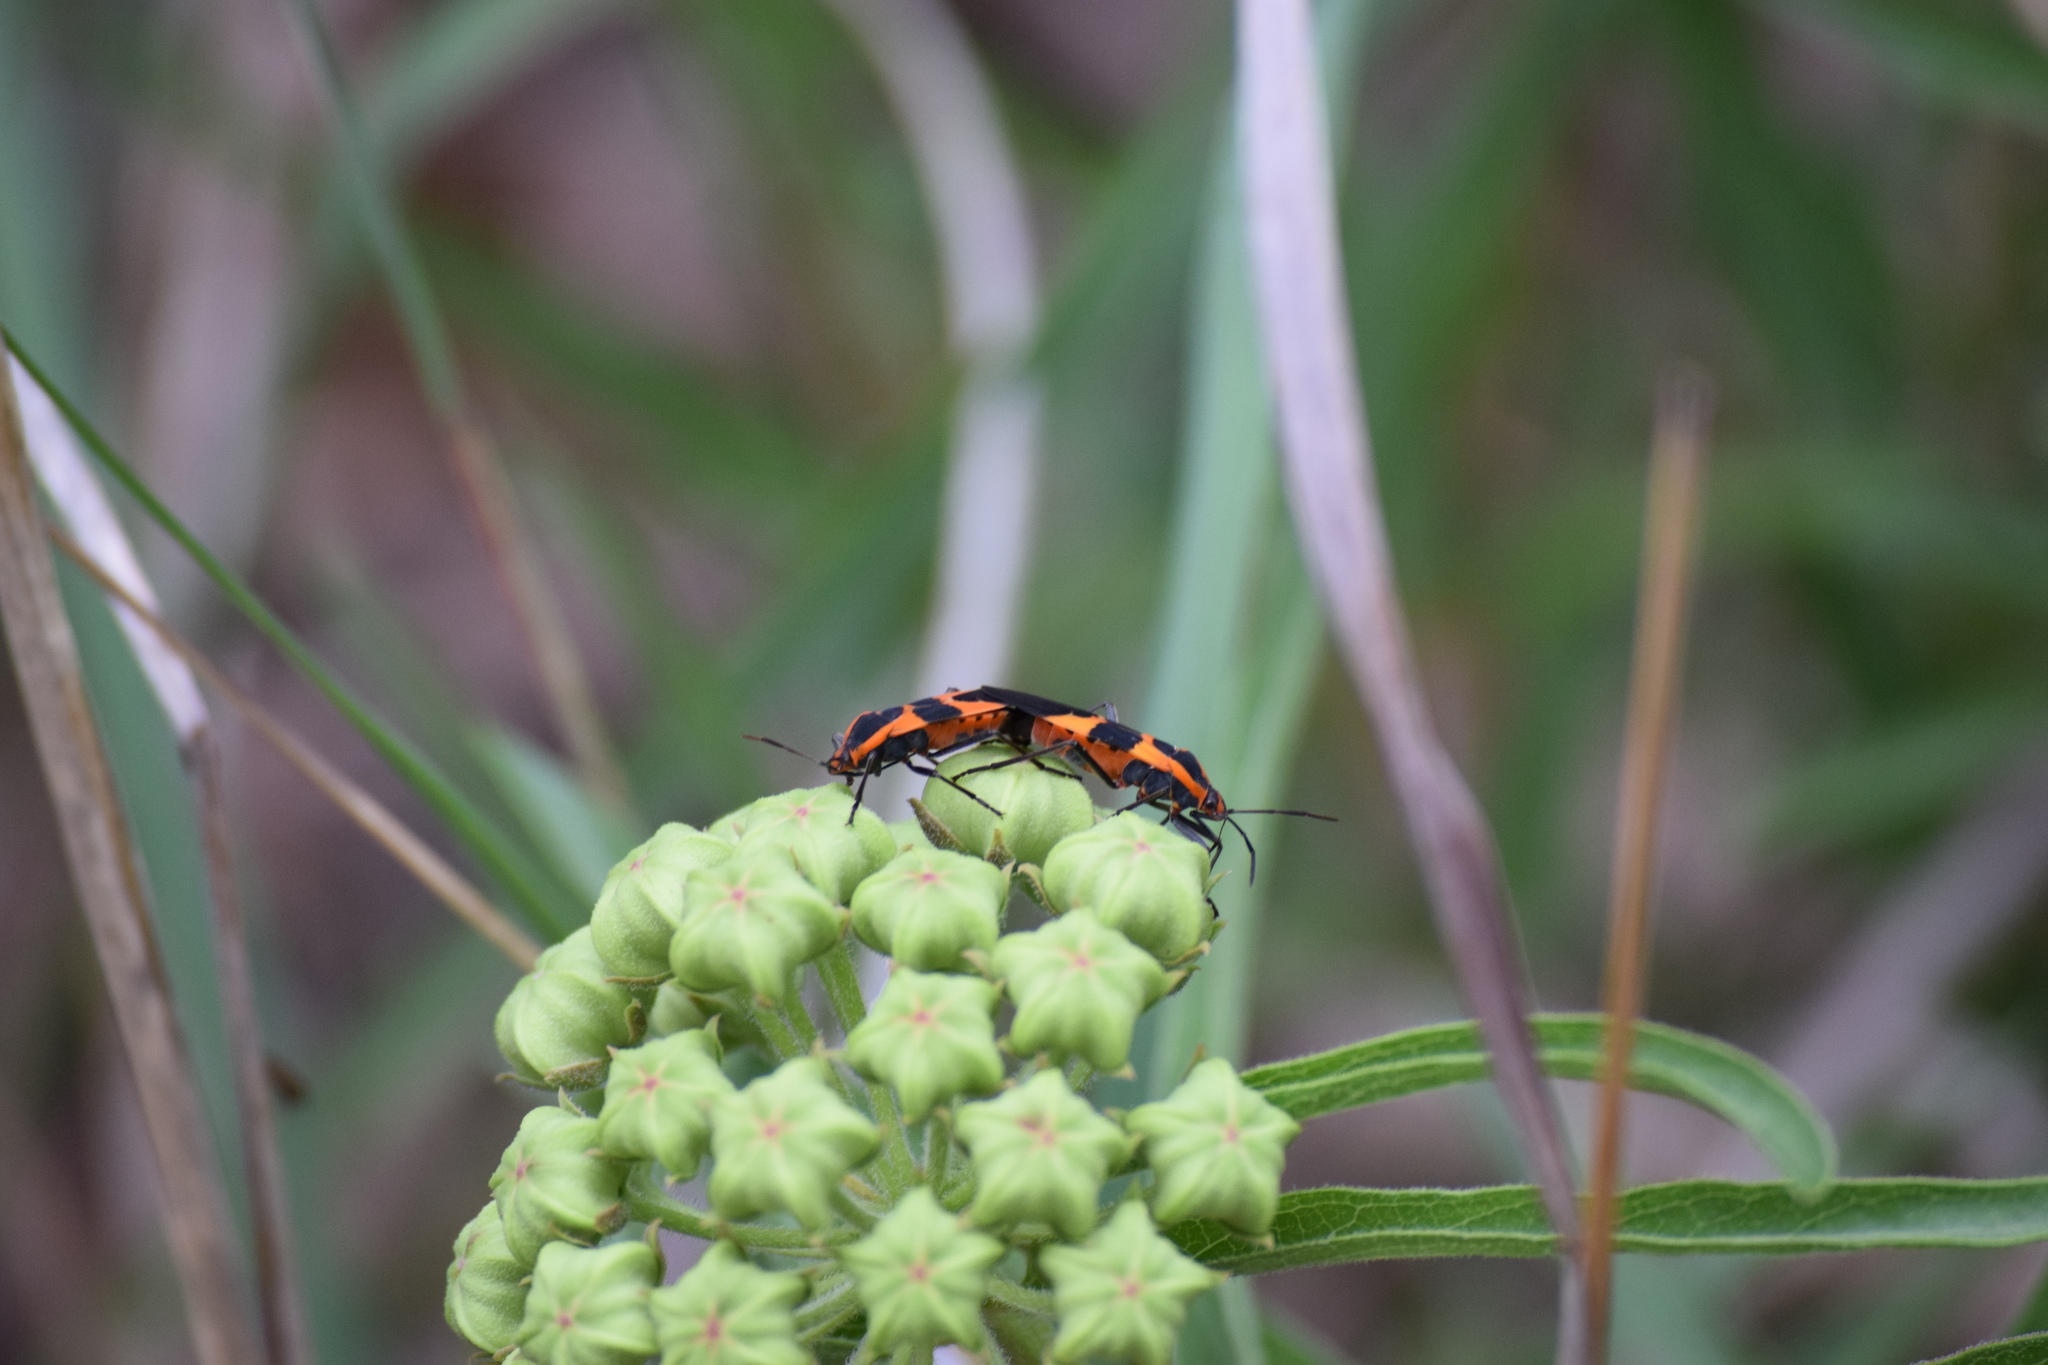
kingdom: Animalia
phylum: Arthropoda
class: Insecta
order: Hemiptera
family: Lygaeidae
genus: Oncopeltus
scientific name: Oncopeltus fasciatus
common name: Large milkweed bug
